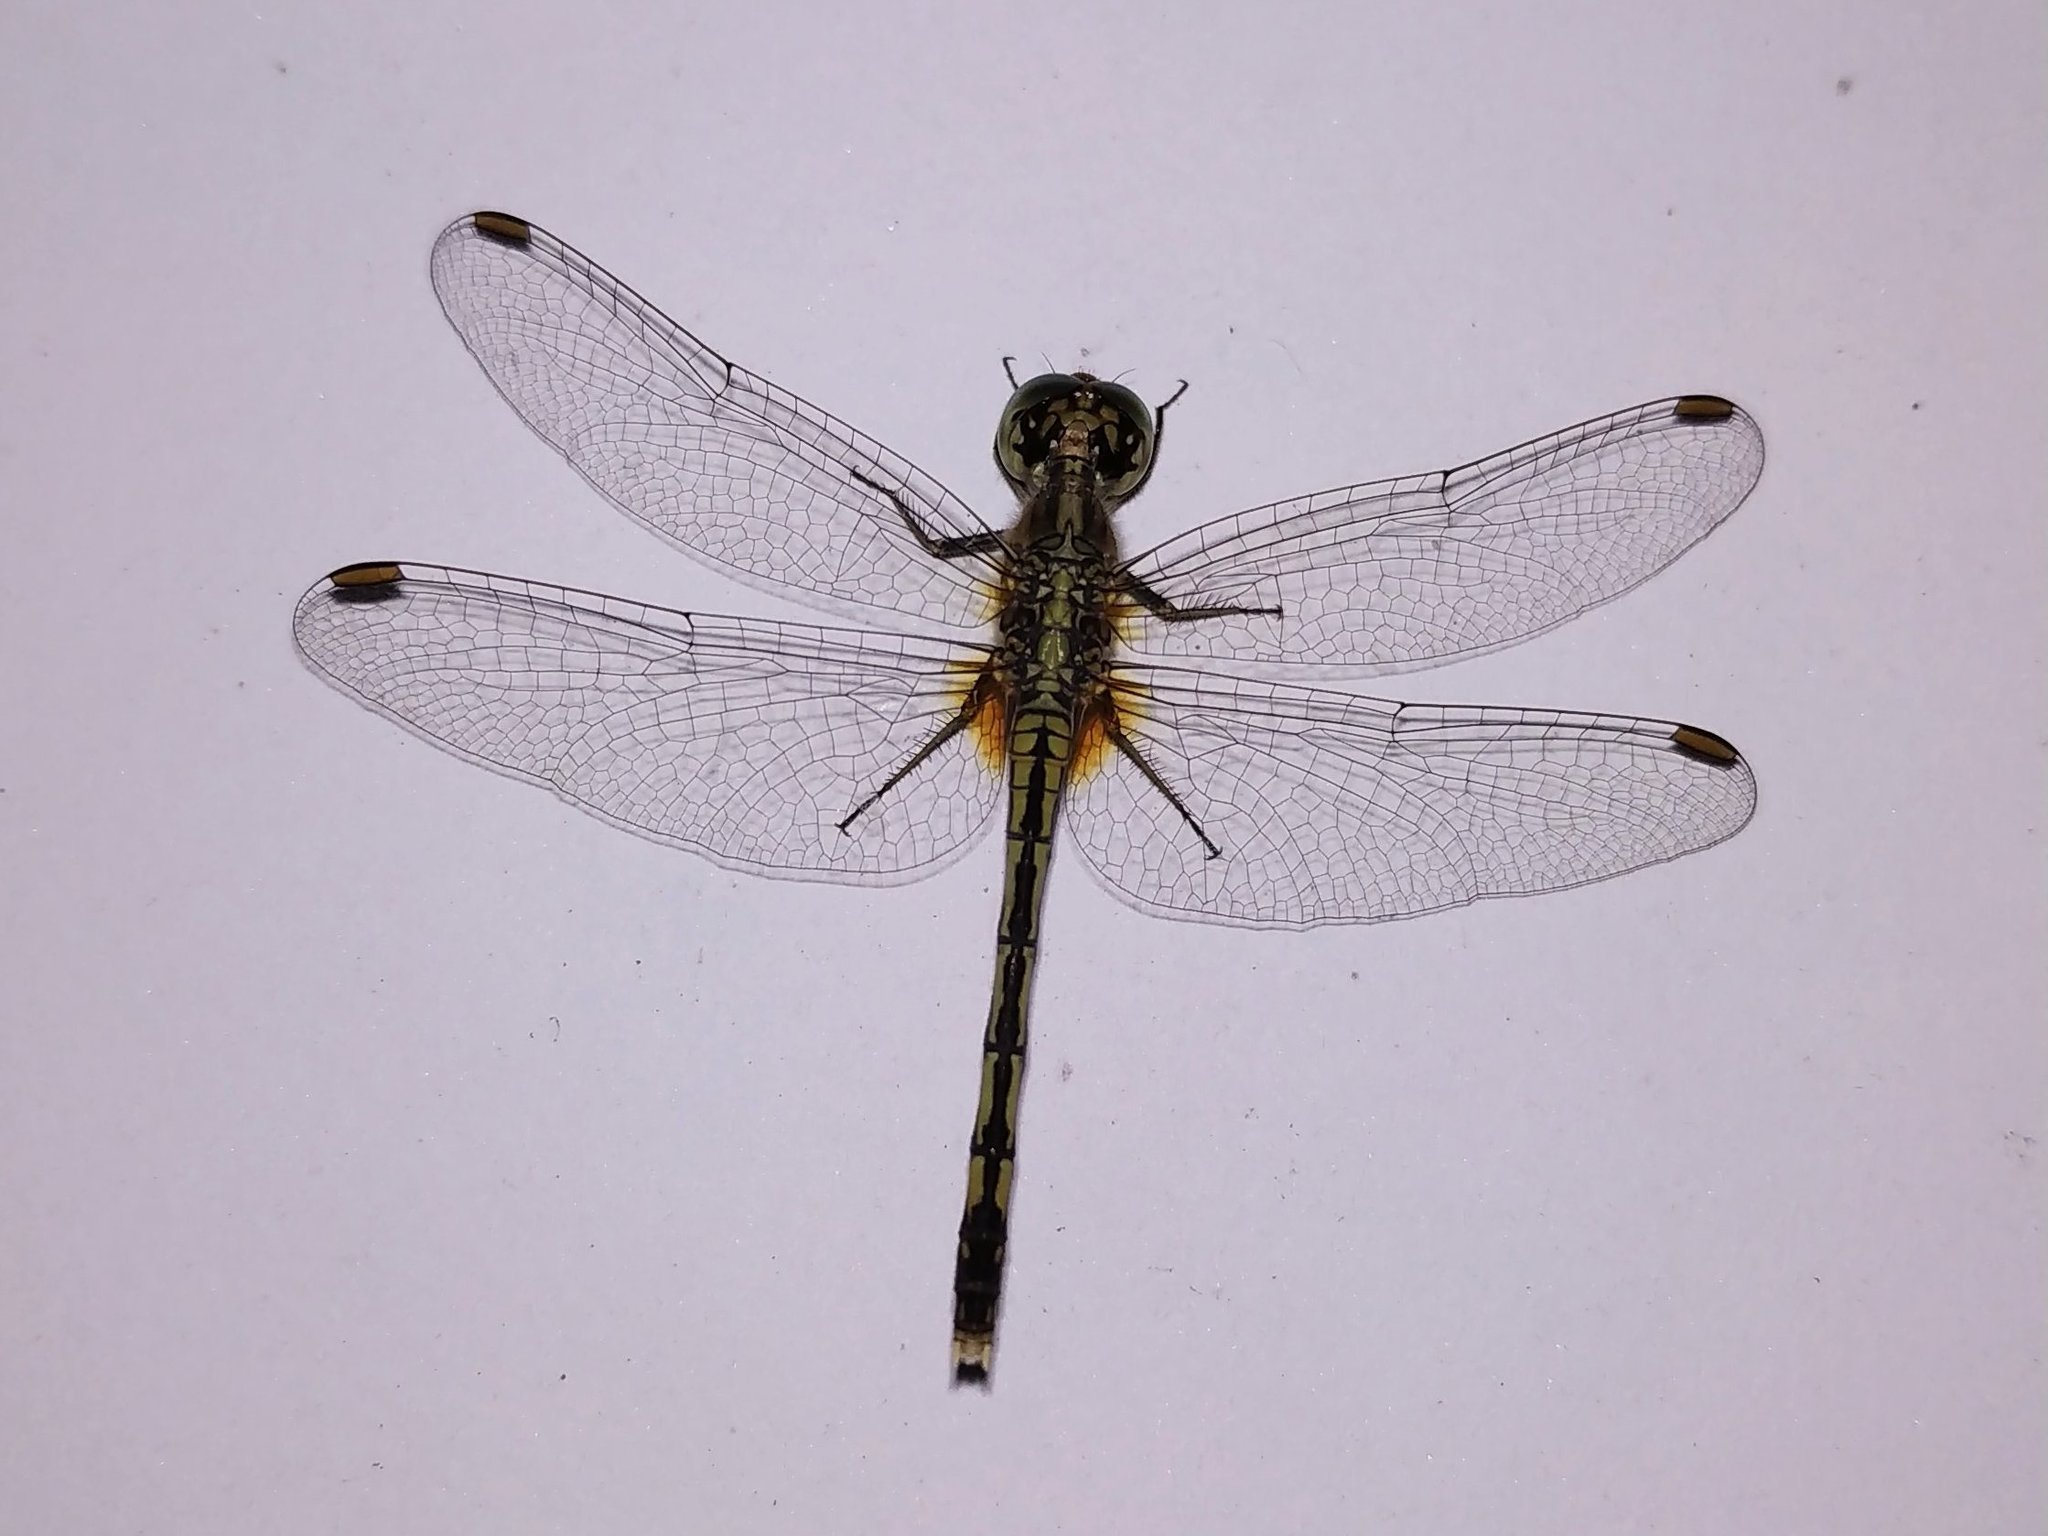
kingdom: Animalia
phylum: Arthropoda
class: Insecta
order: Odonata
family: Libellulidae
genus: Diplacodes
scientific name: Diplacodes trivialis
